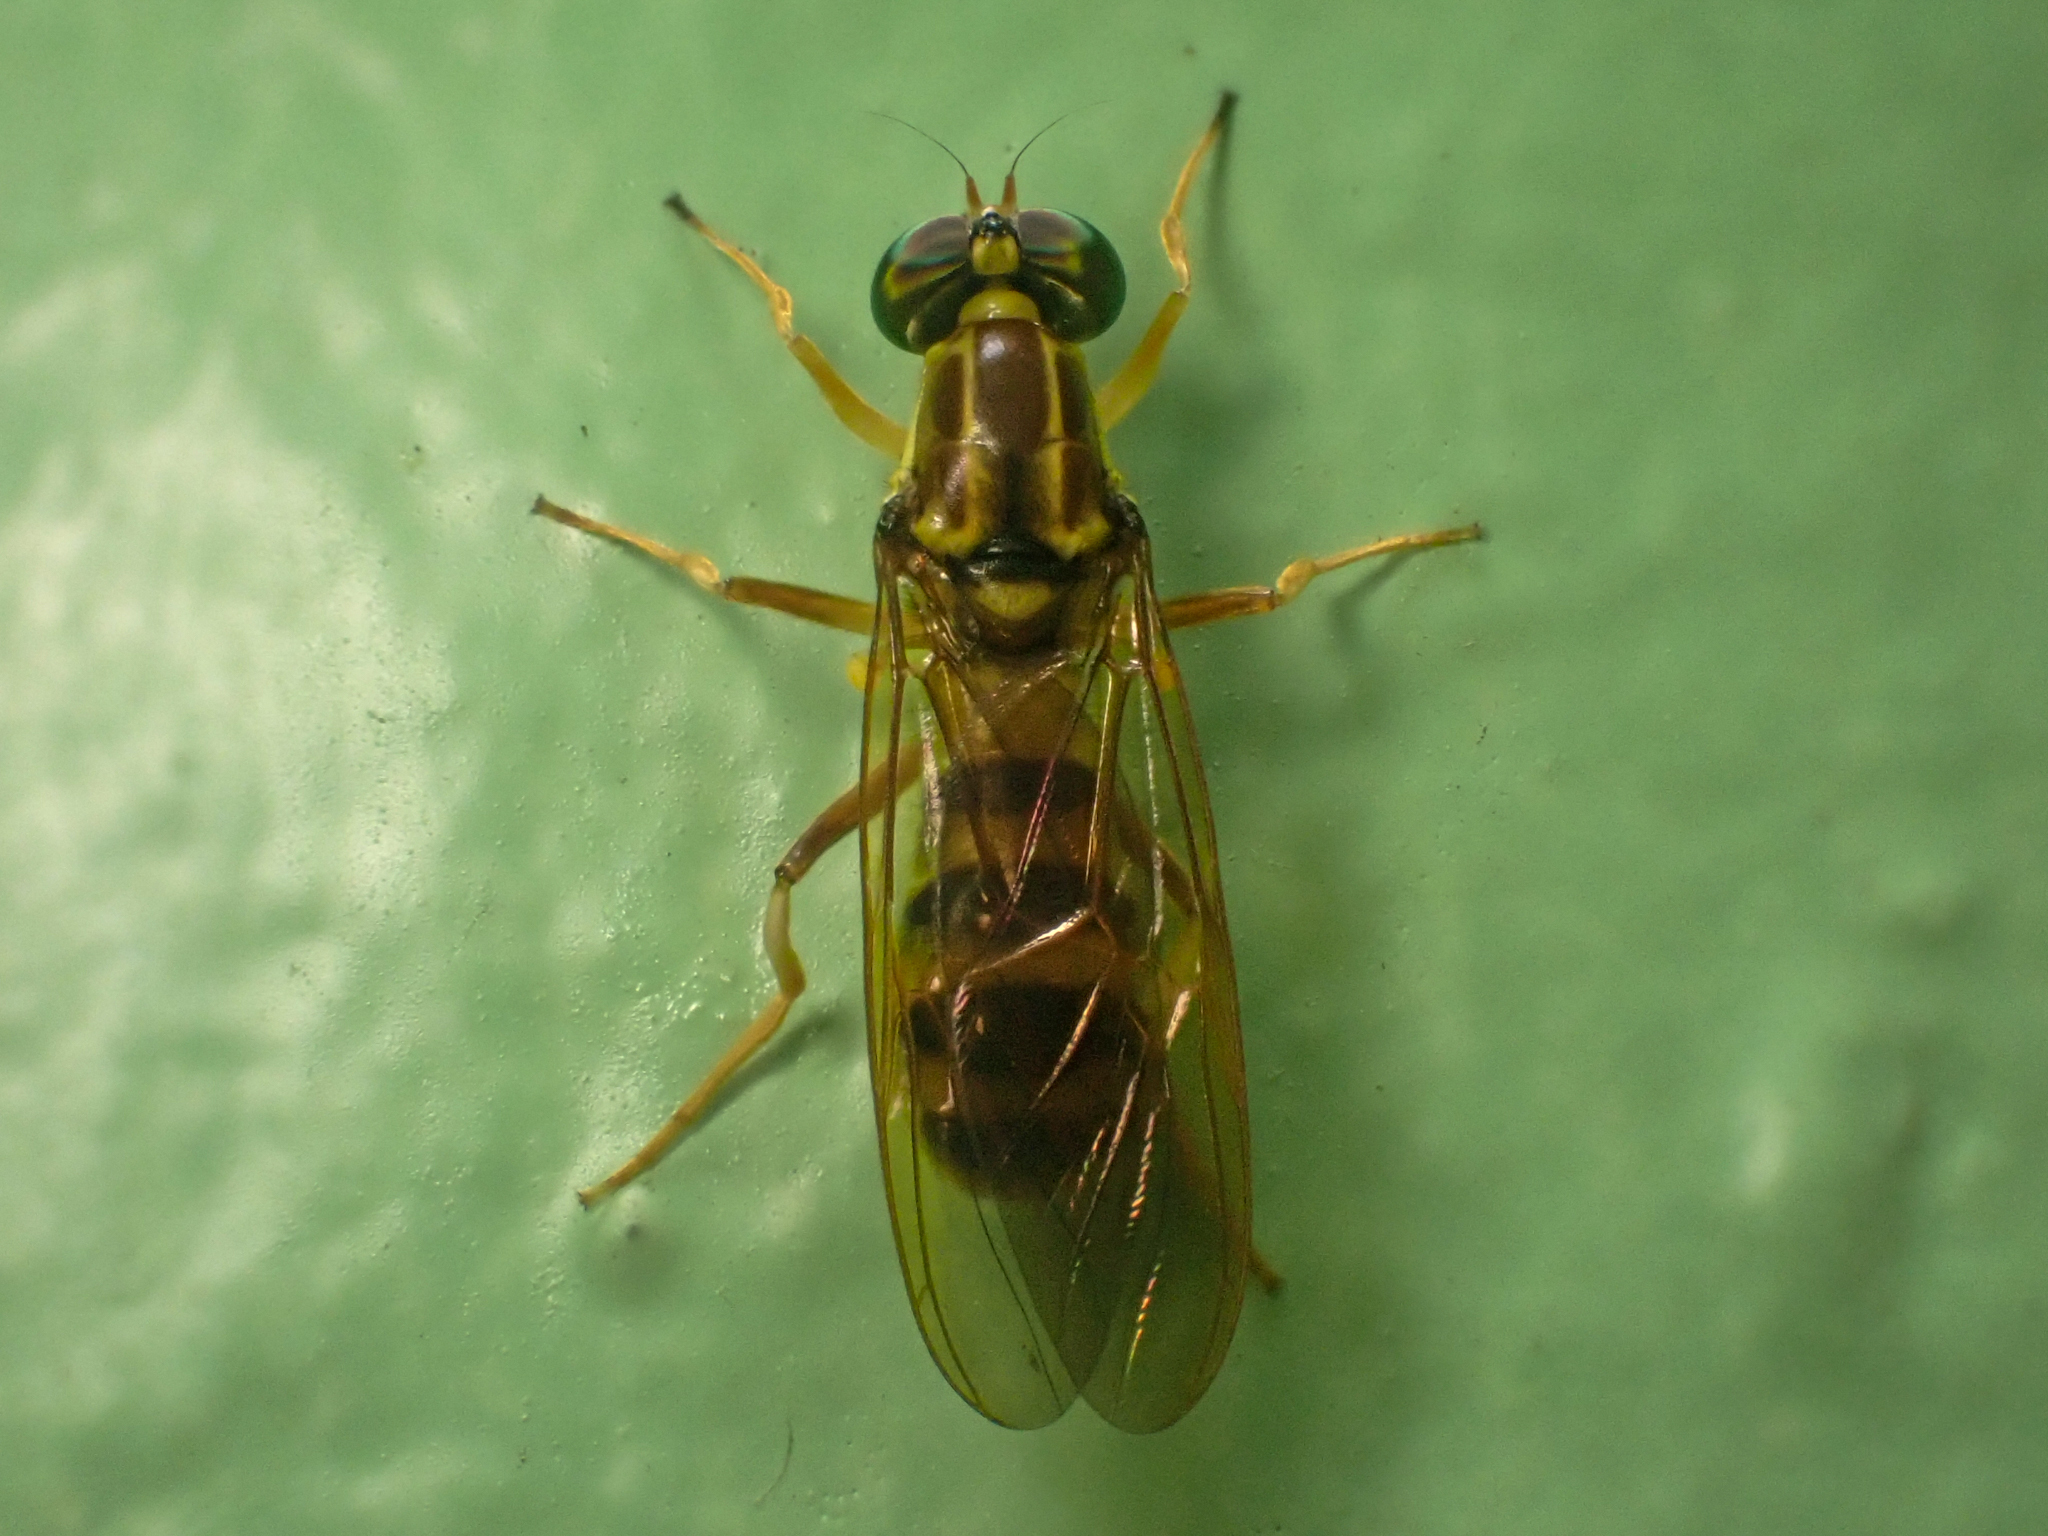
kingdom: Animalia
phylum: Arthropoda
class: Insecta
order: Diptera
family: Stratiomyidae
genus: Merosargus
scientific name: Merosargus aureonitens
